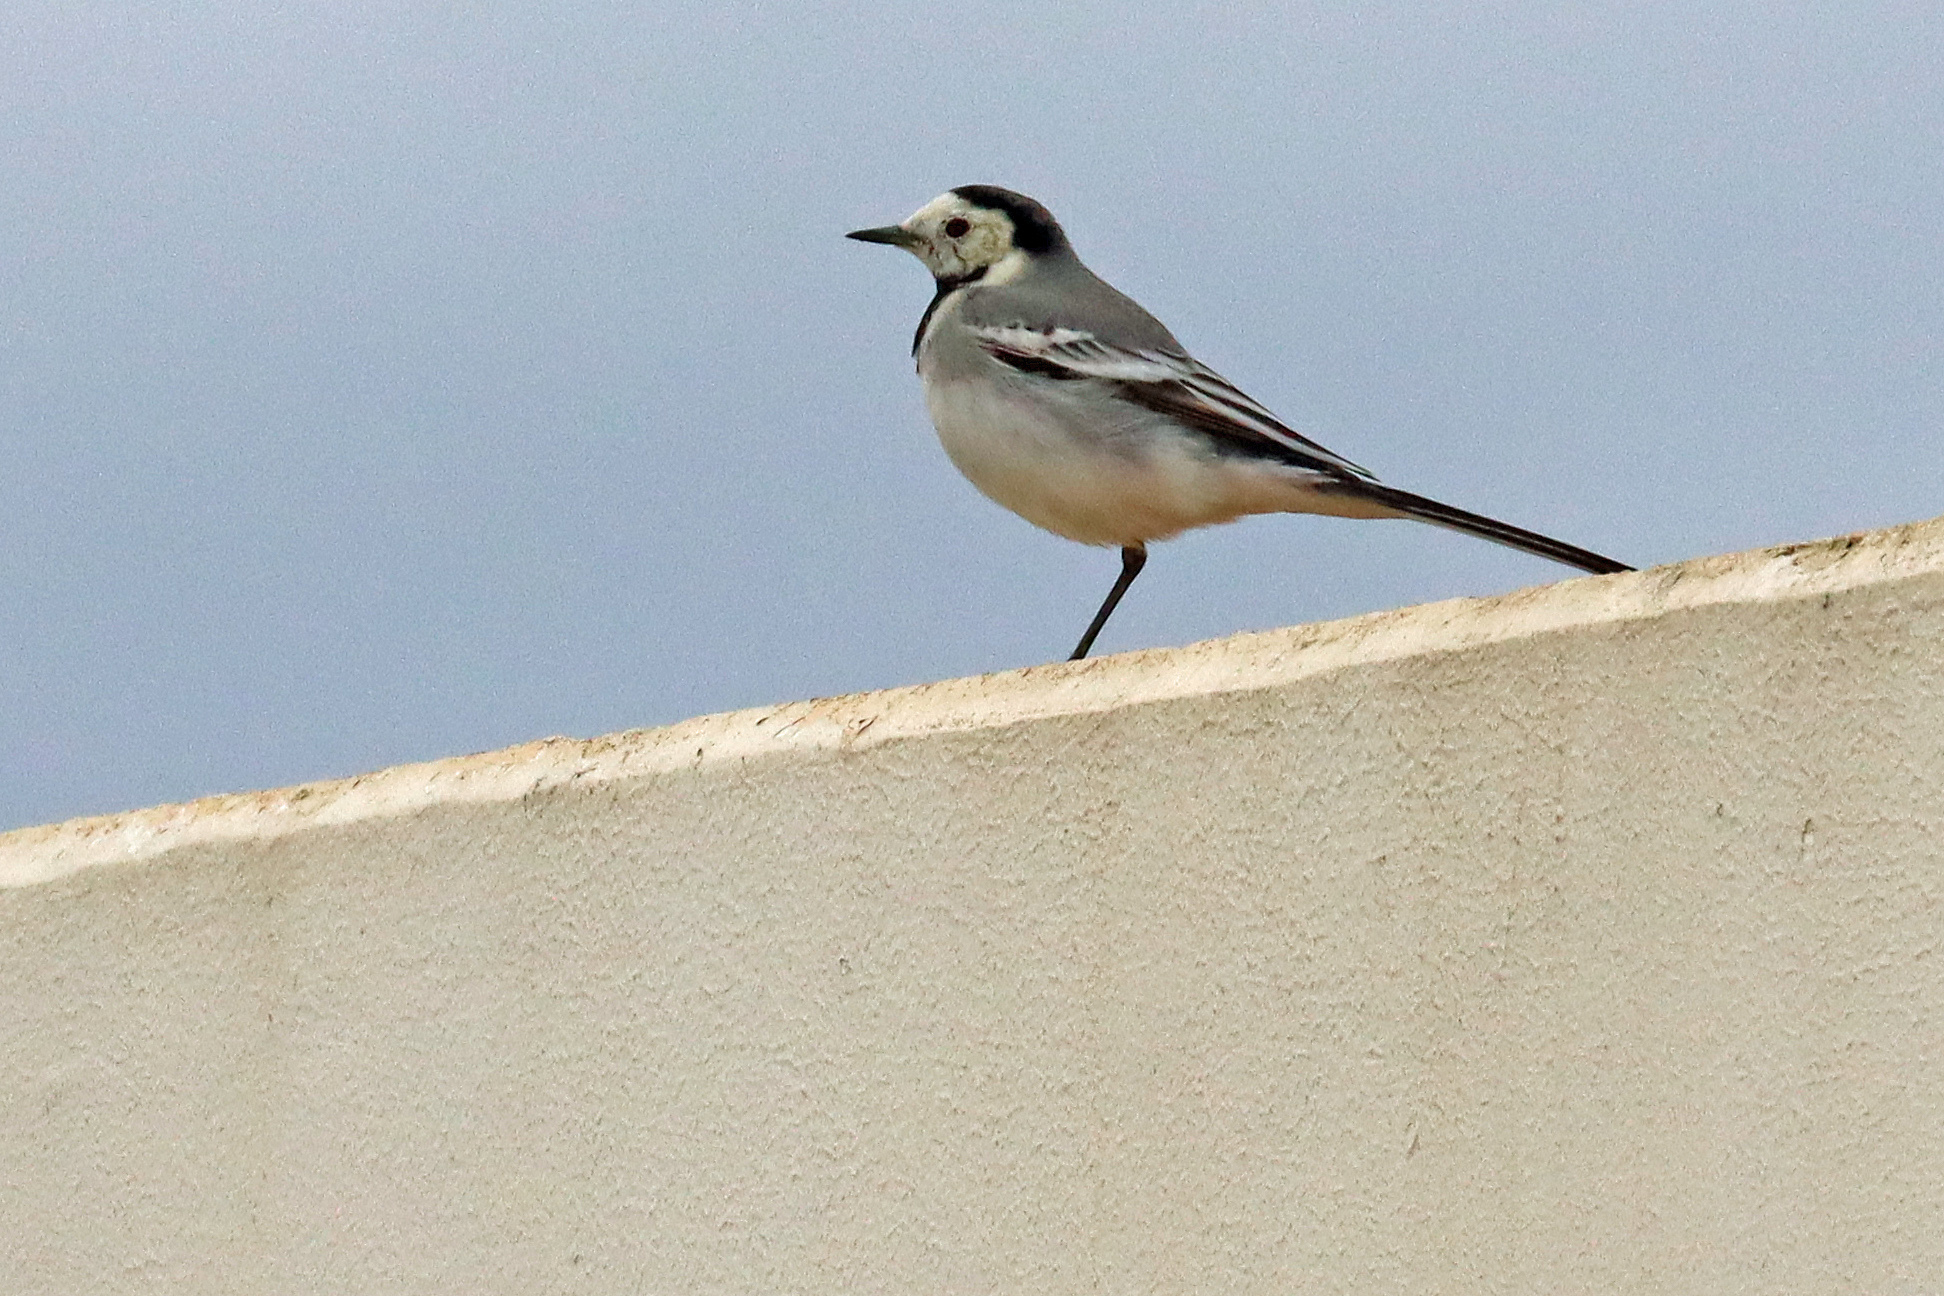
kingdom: Animalia
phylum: Chordata
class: Aves
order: Passeriformes
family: Motacillidae
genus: Motacilla
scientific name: Motacilla alba
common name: White wagtail
